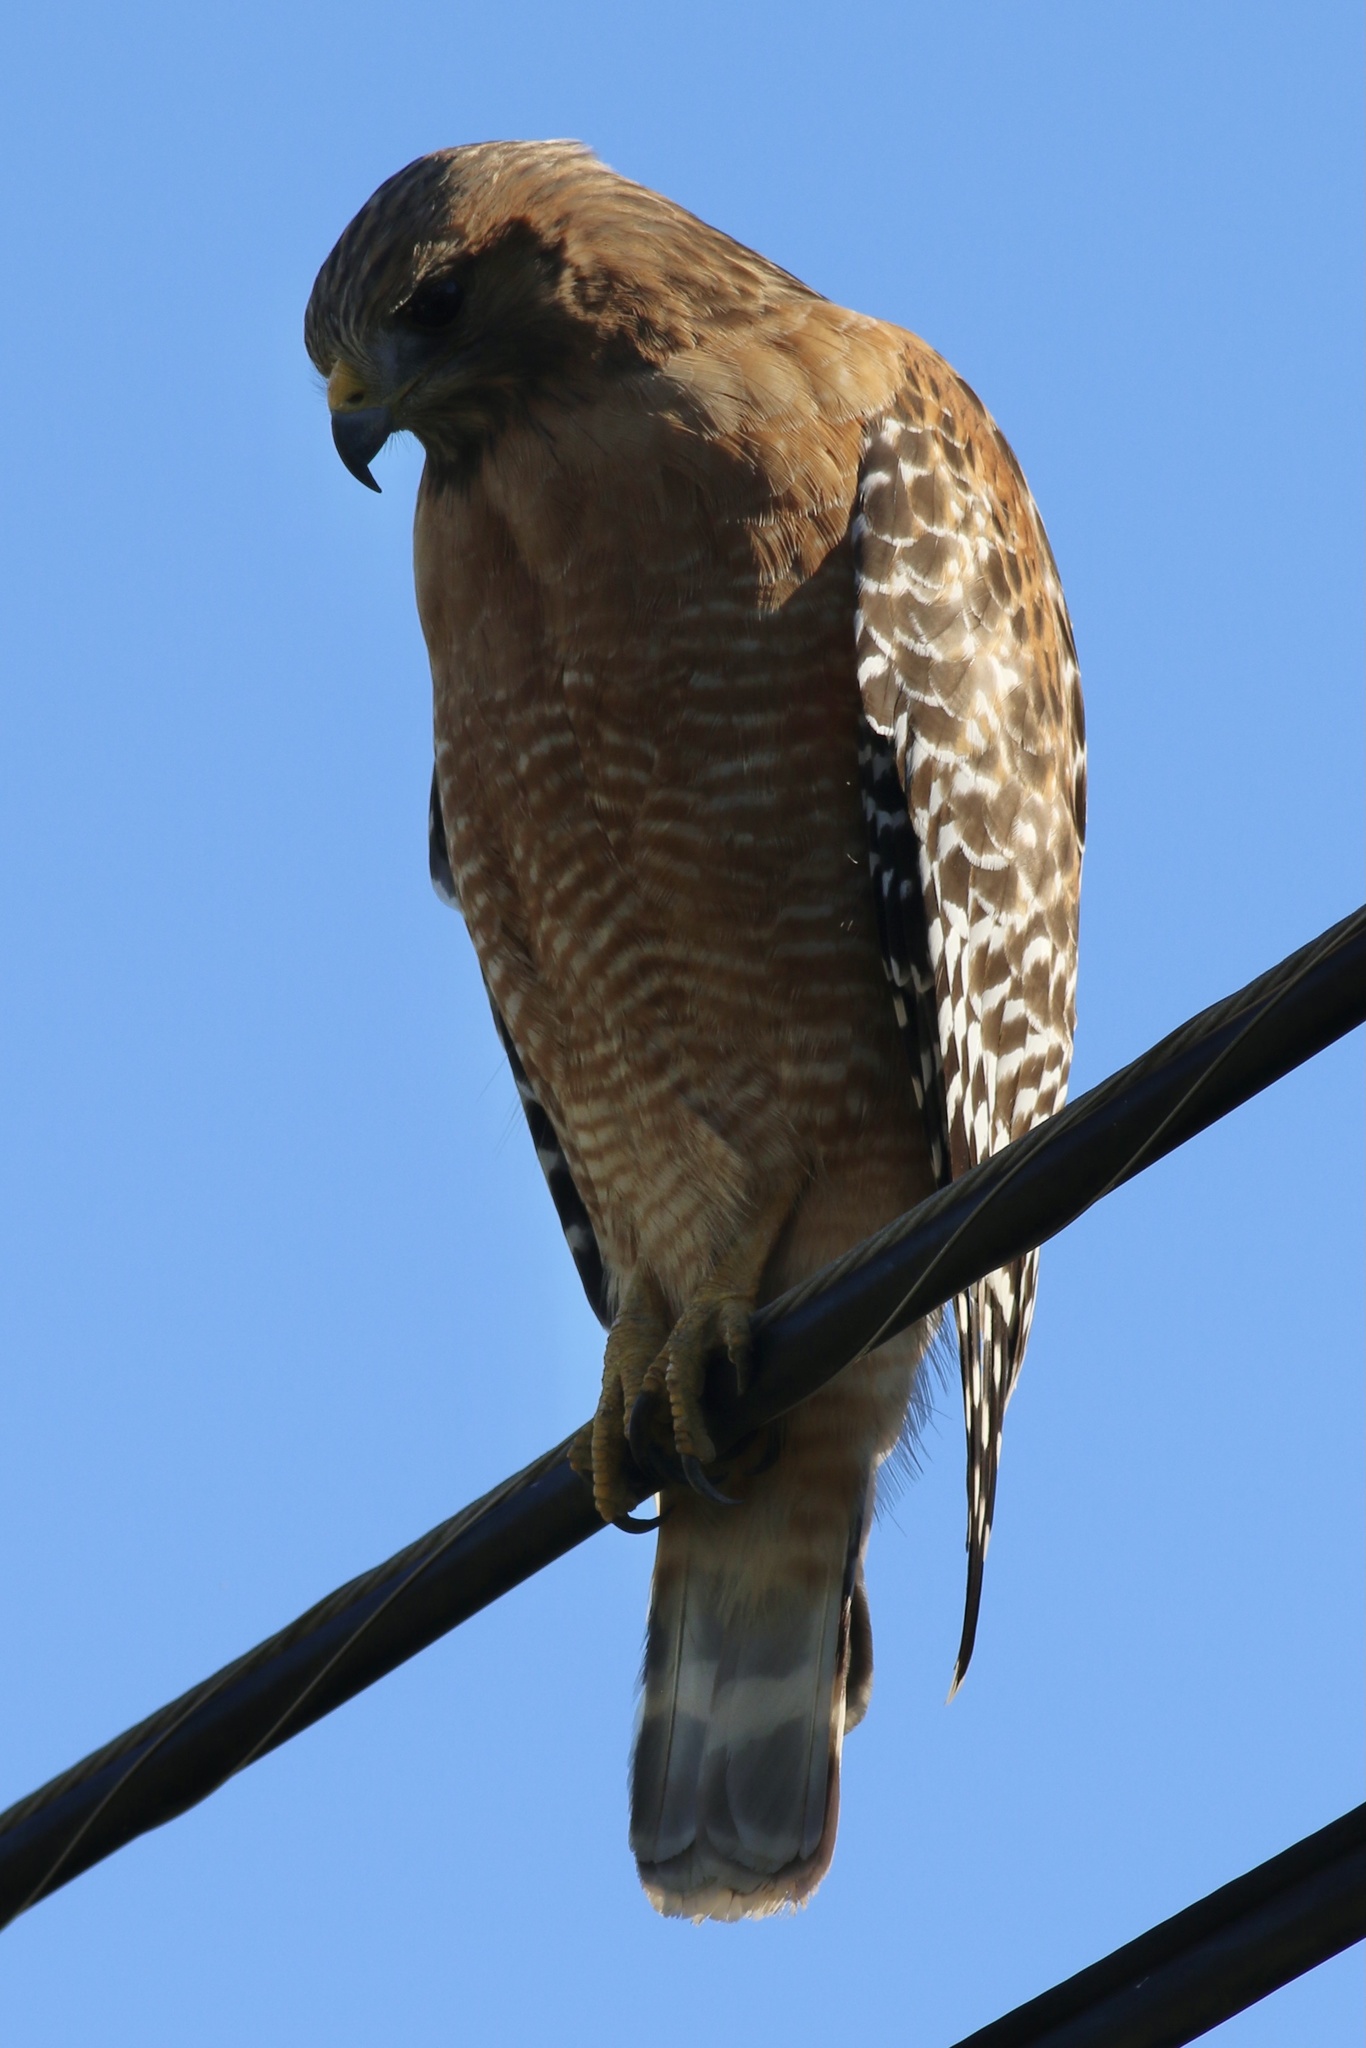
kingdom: Animalia
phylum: Chordata
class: Aves
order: Accipitriformes
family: Accipitridae
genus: Buteo
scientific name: Buteo lineatus
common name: Red-shouldered hawk
